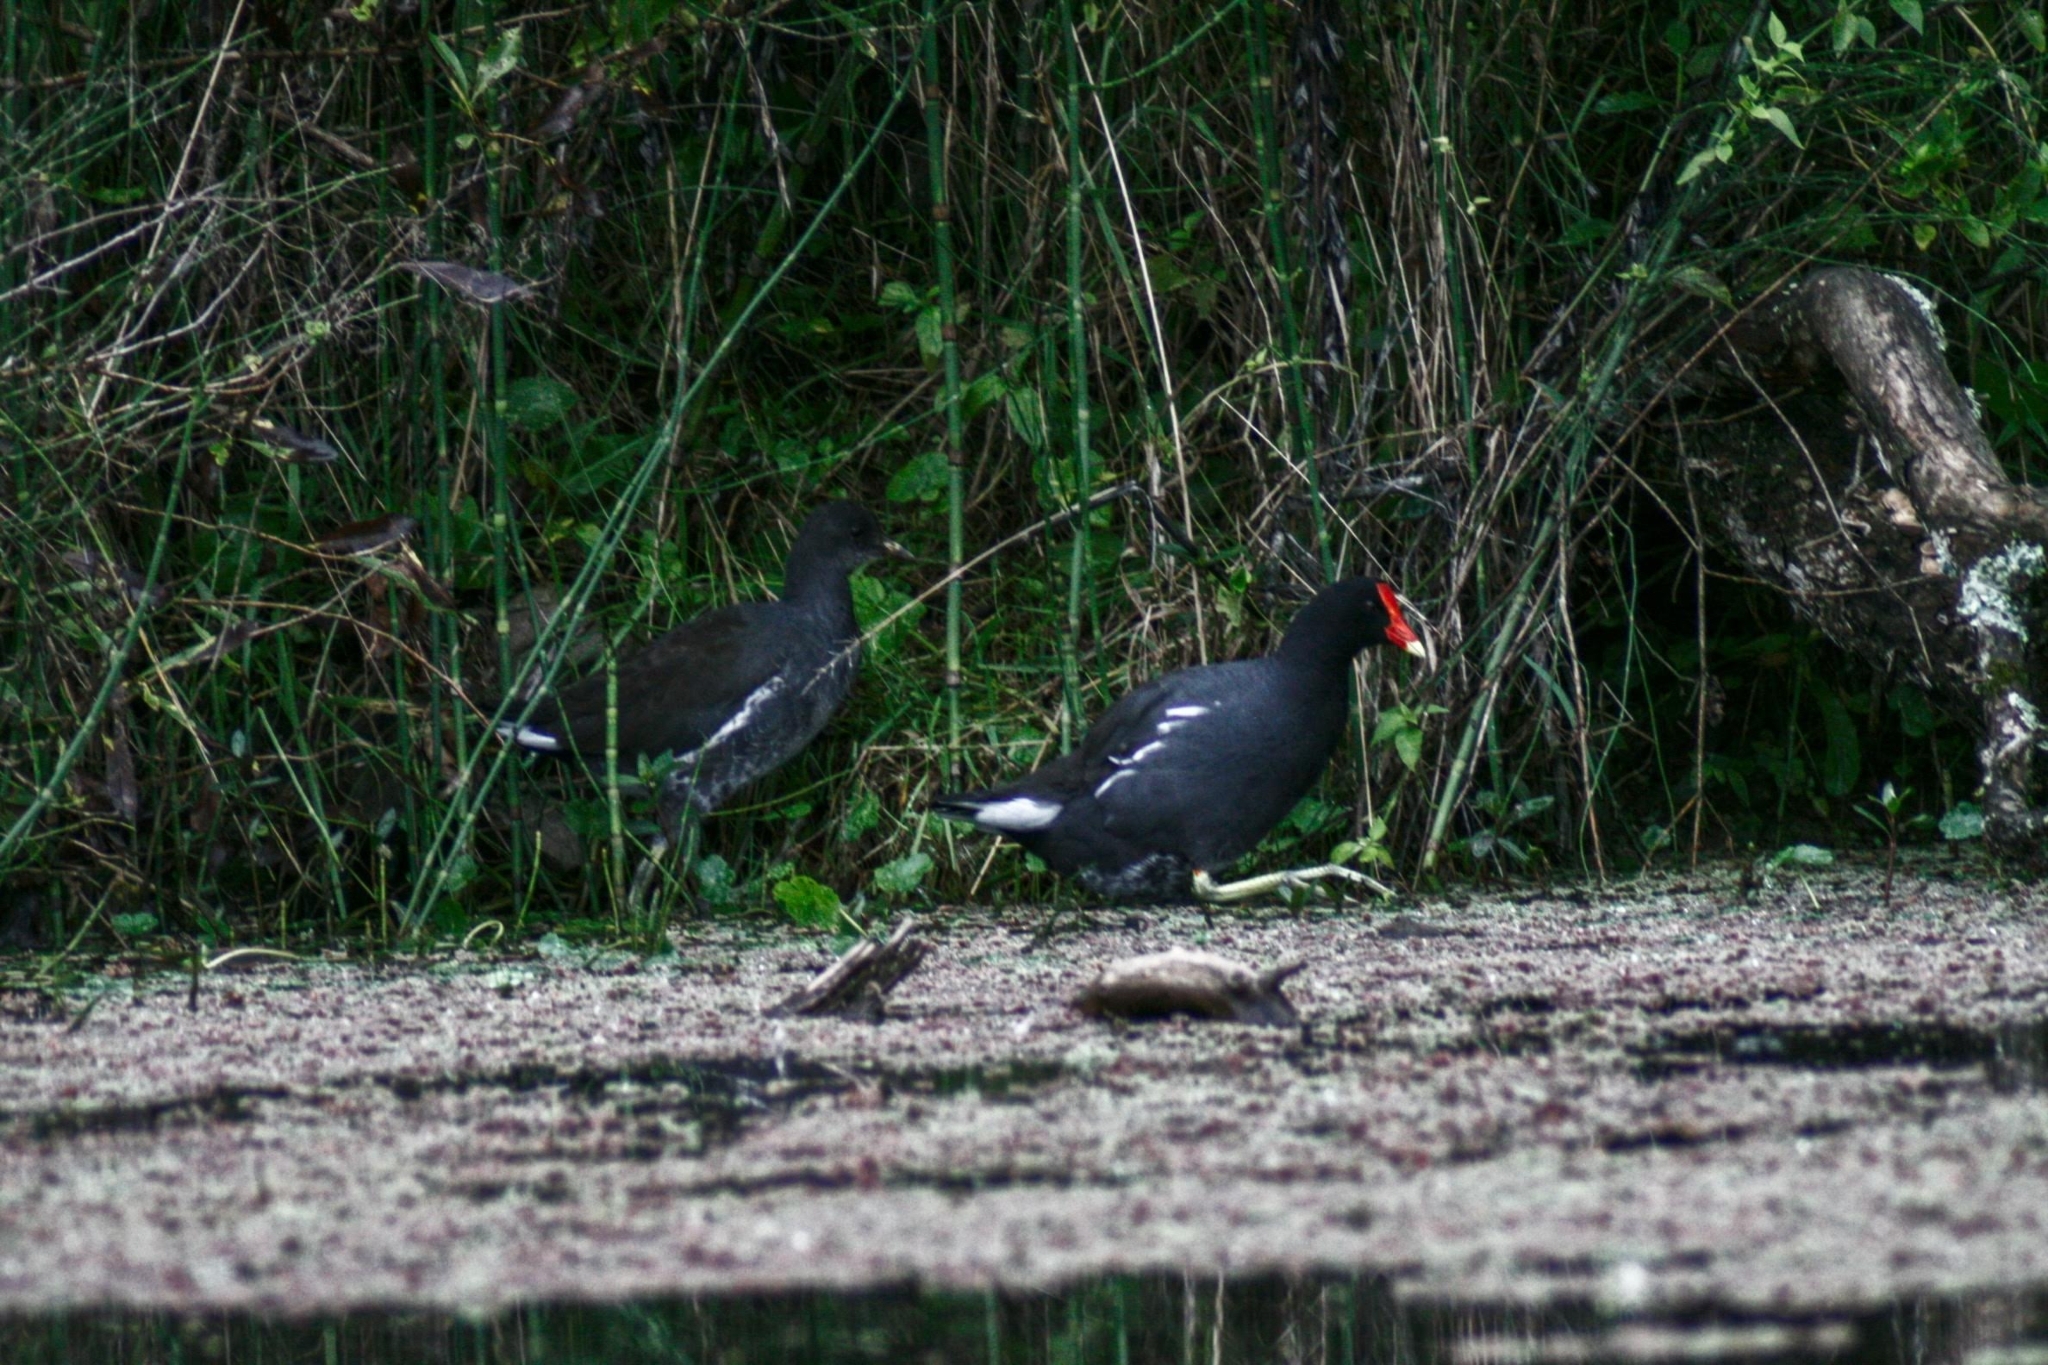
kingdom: Animalia
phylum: Chordata
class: Aves
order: Gruiformes
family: Rallidae
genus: Gallinula
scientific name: Gallinula chloropus
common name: Common moorhen
